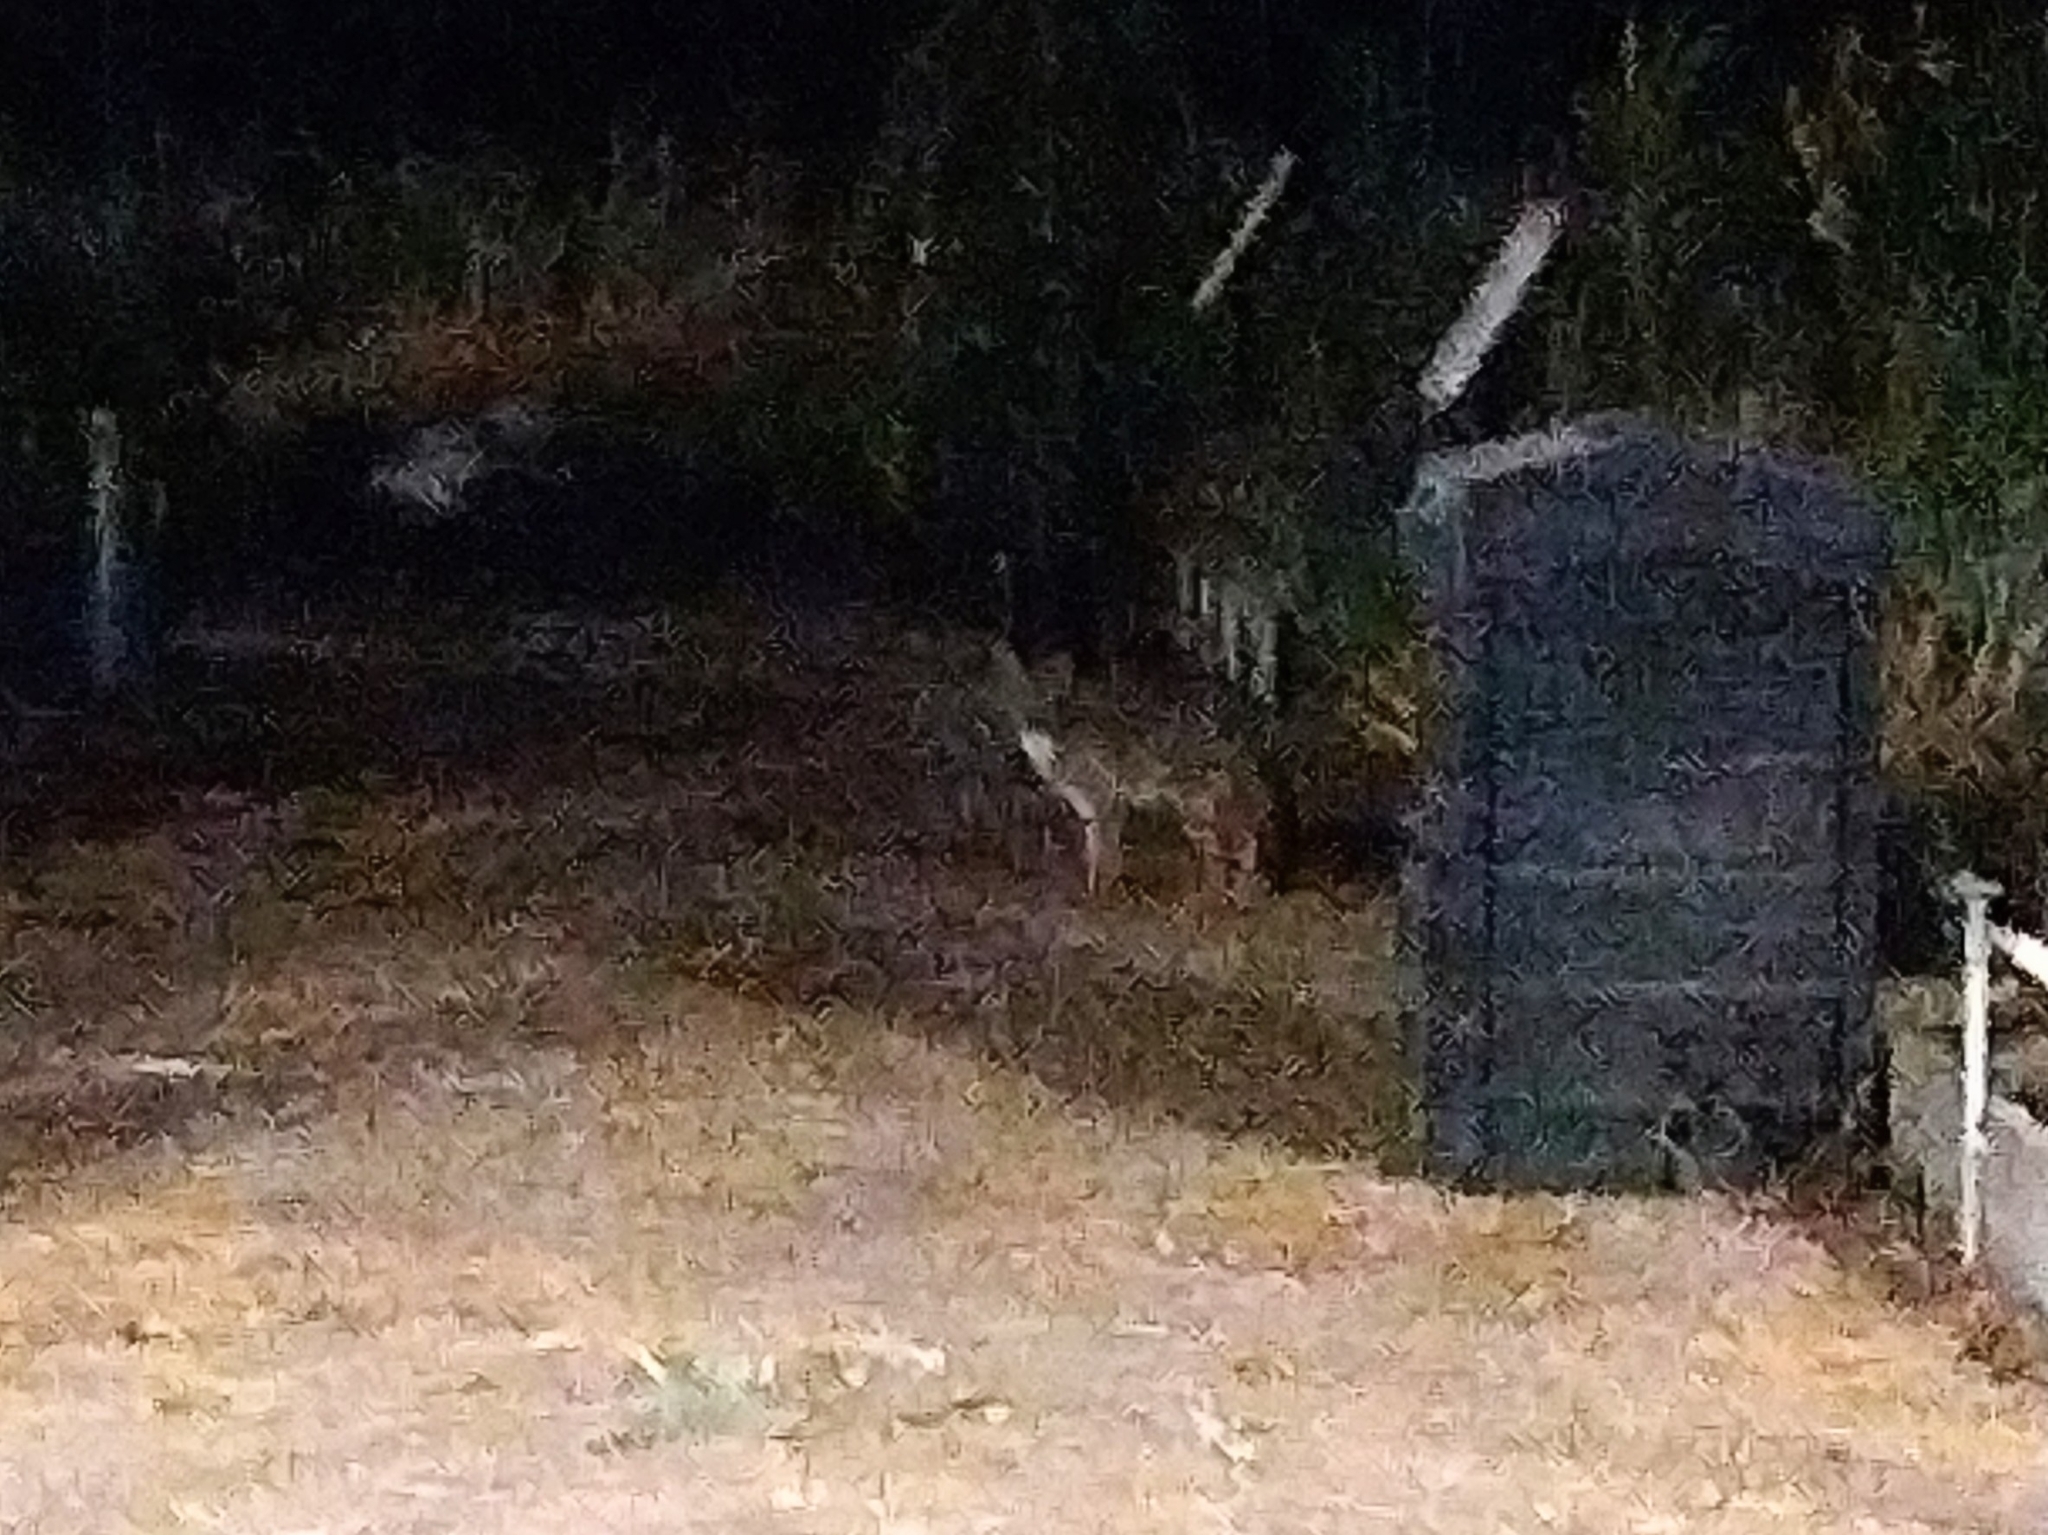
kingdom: Animalia
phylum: Chordata
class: Mammalia
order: Carnivora
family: Canidae
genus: Urocyon
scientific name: Urocyon cinereoargenteus
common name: Gray fox
